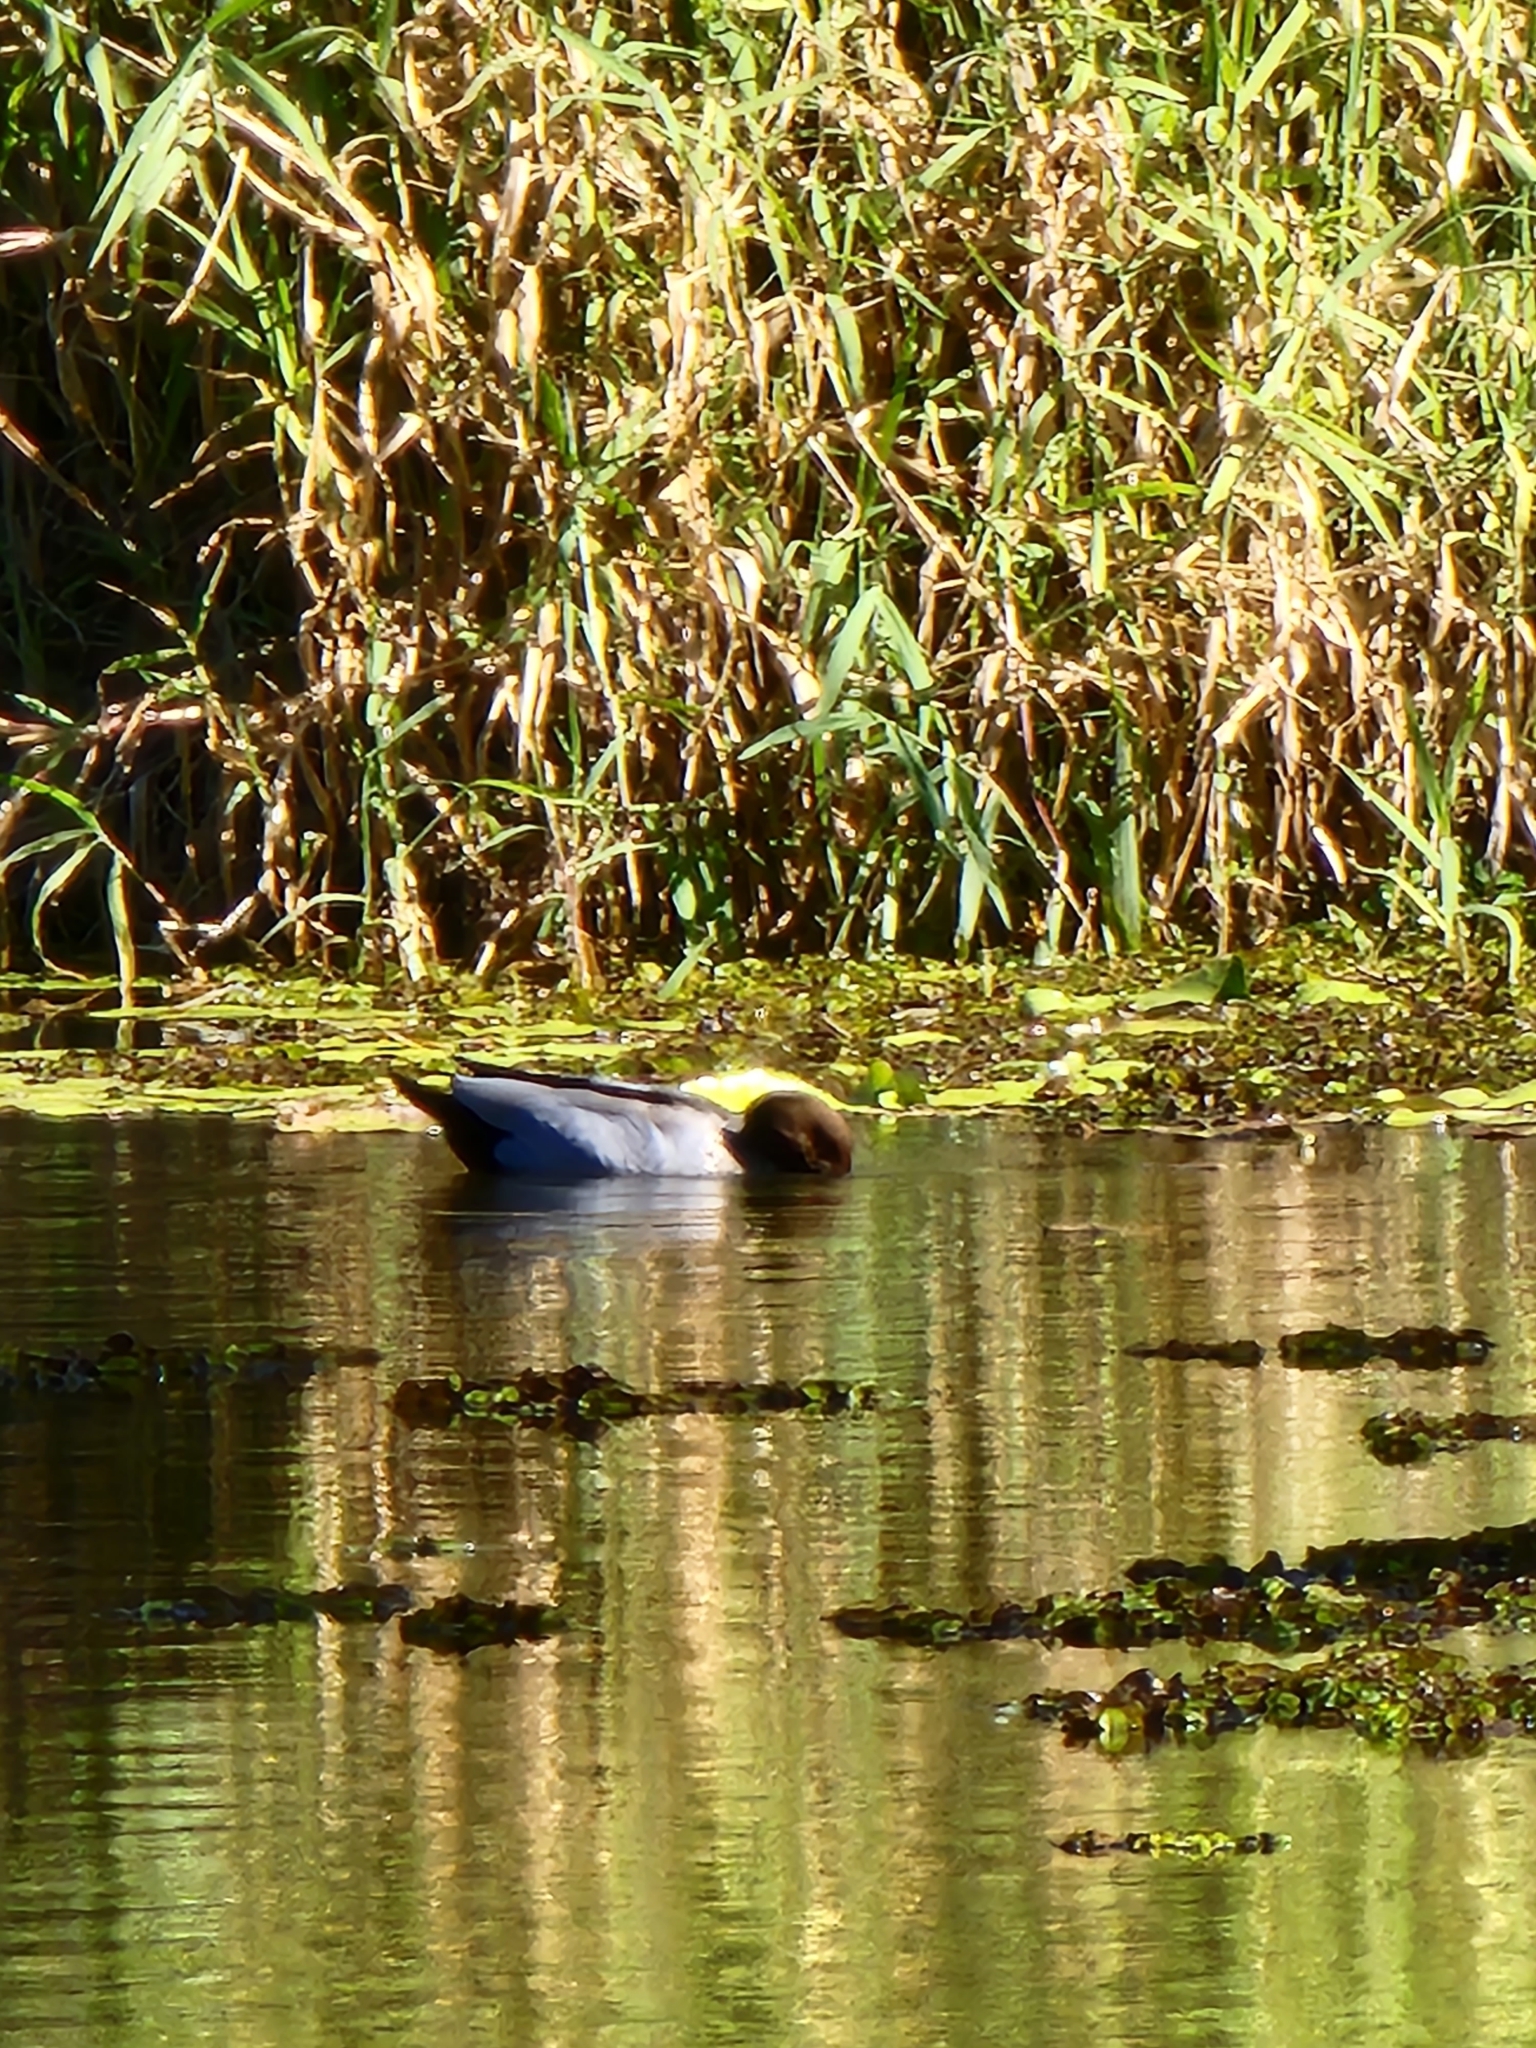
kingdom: Animalia
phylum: Chordata
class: Aves
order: Anseriformes
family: Anatidae
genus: Chenonetta
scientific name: Chenonetta jubata
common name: Maned duck
